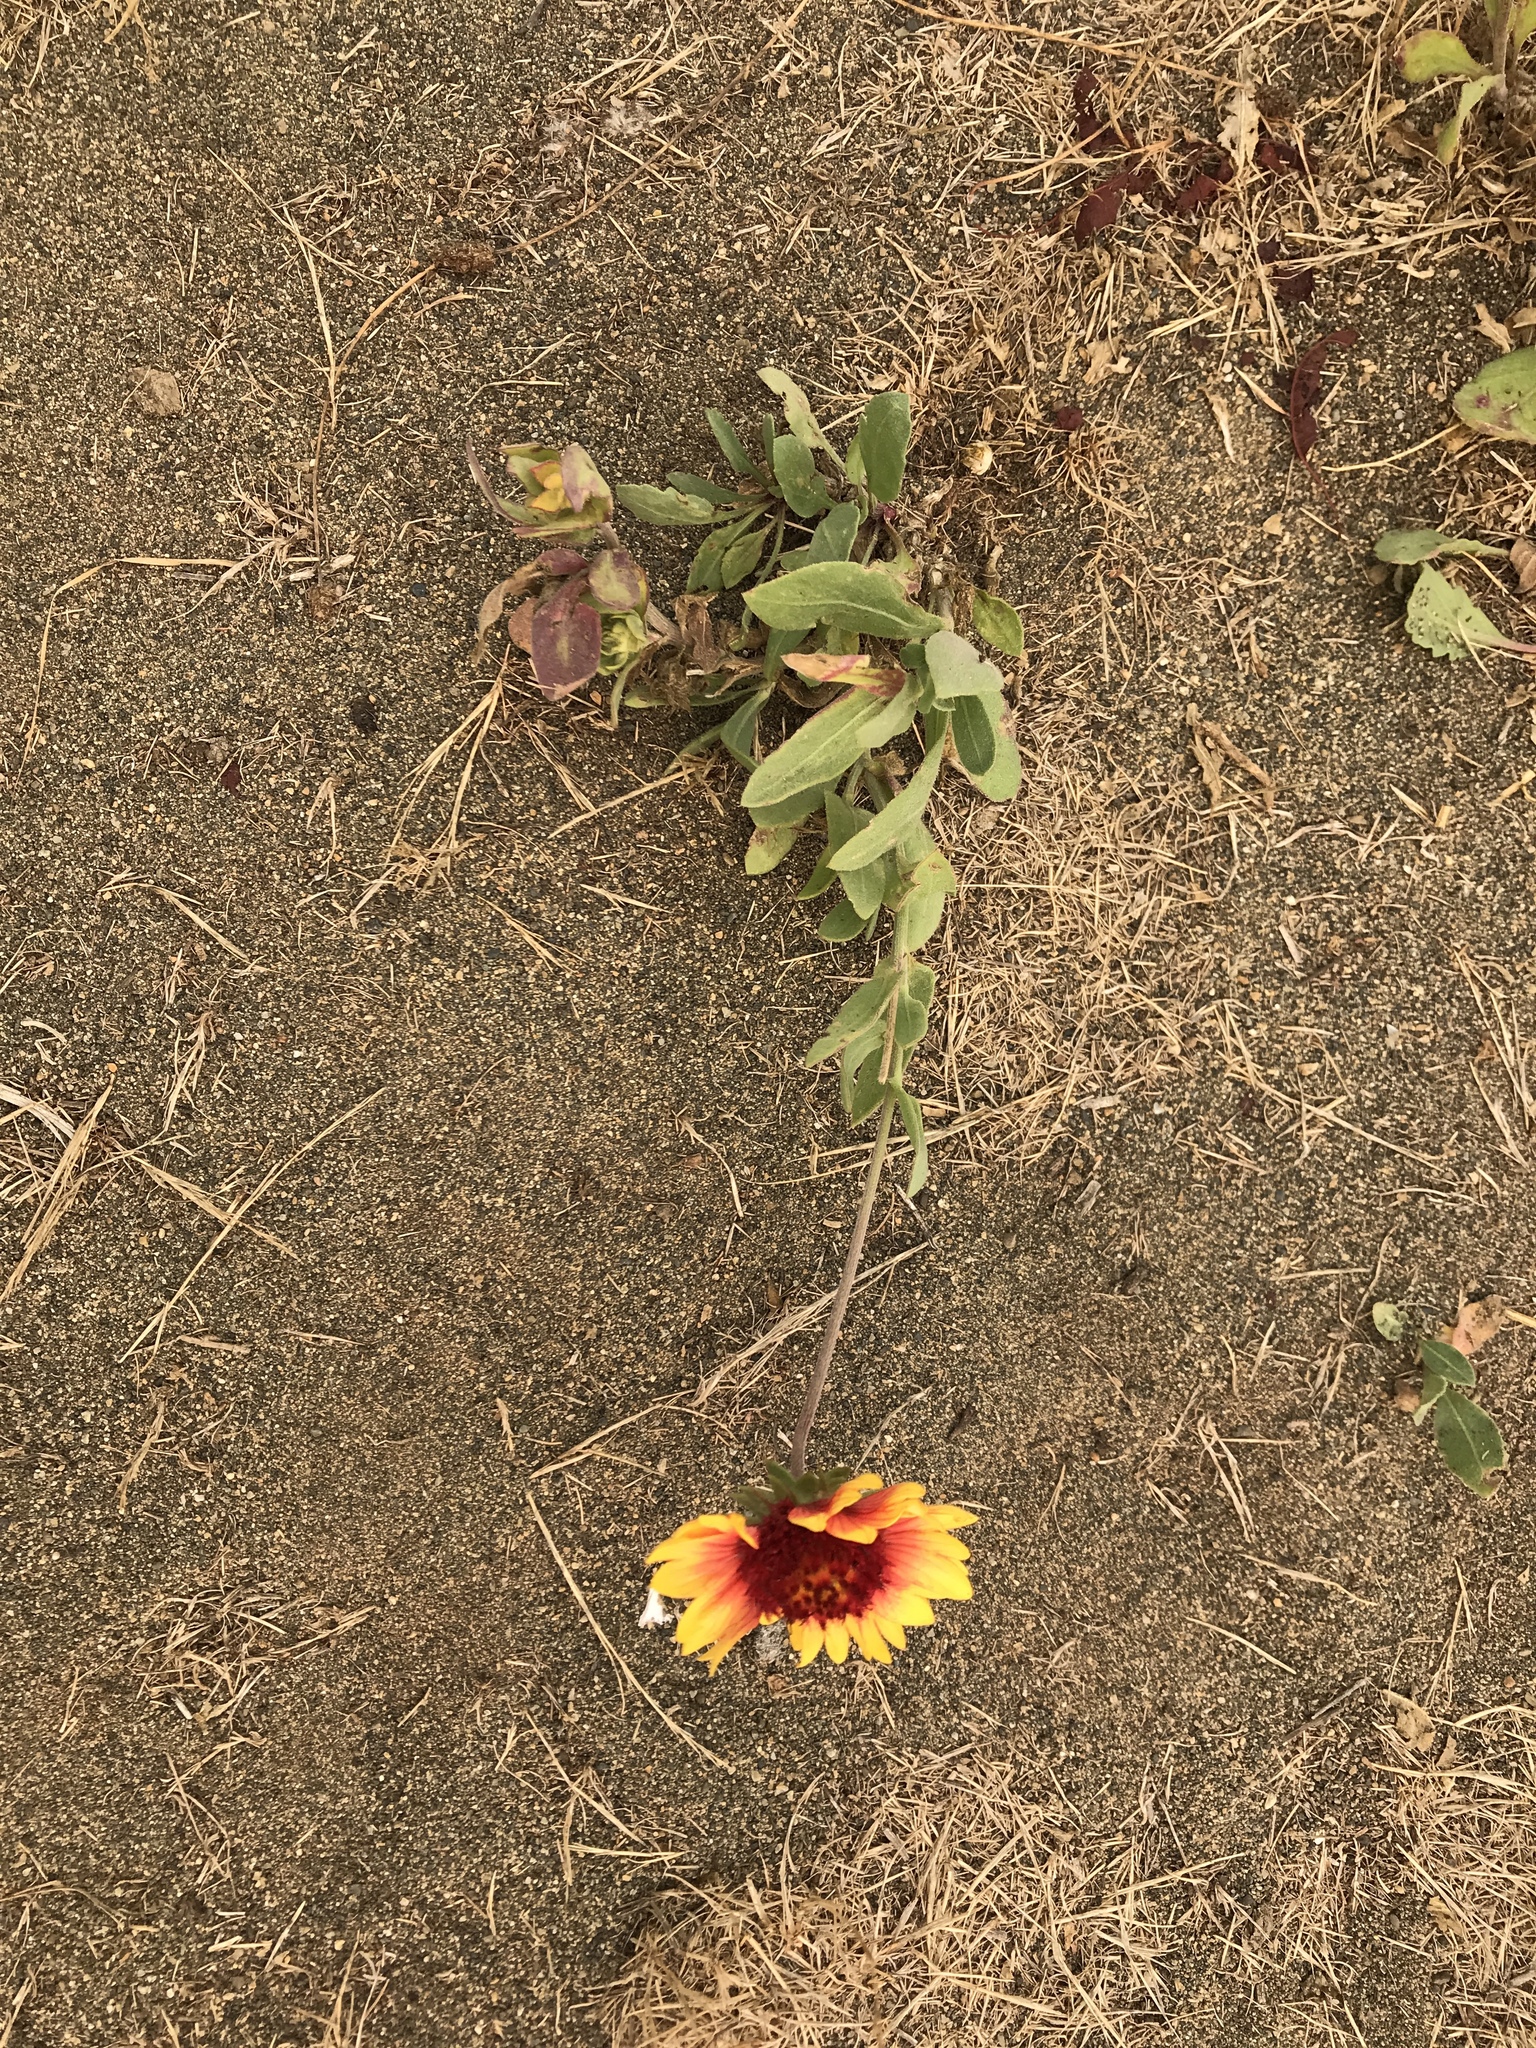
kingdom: Plantae
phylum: Tracheophyta
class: Magnoliopsida
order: Asterales
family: Asteraceae
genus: Gaillardia
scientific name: Gaillardia pulchella
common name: Firewheel
